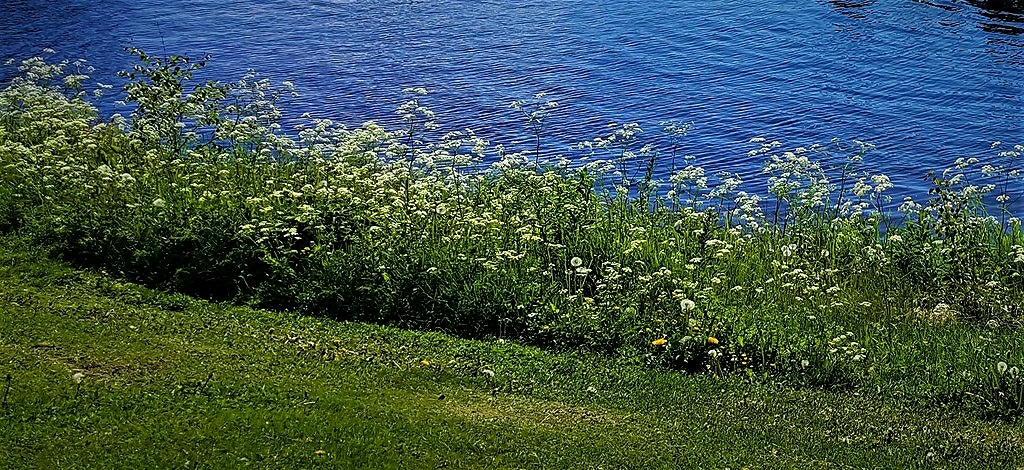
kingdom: Plantae
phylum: Tracheophyta
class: Magnoliopsida
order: Apiales
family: Apiaceae
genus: Anthriscus
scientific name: Anthriscus sylvestris
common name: Cow parsley
